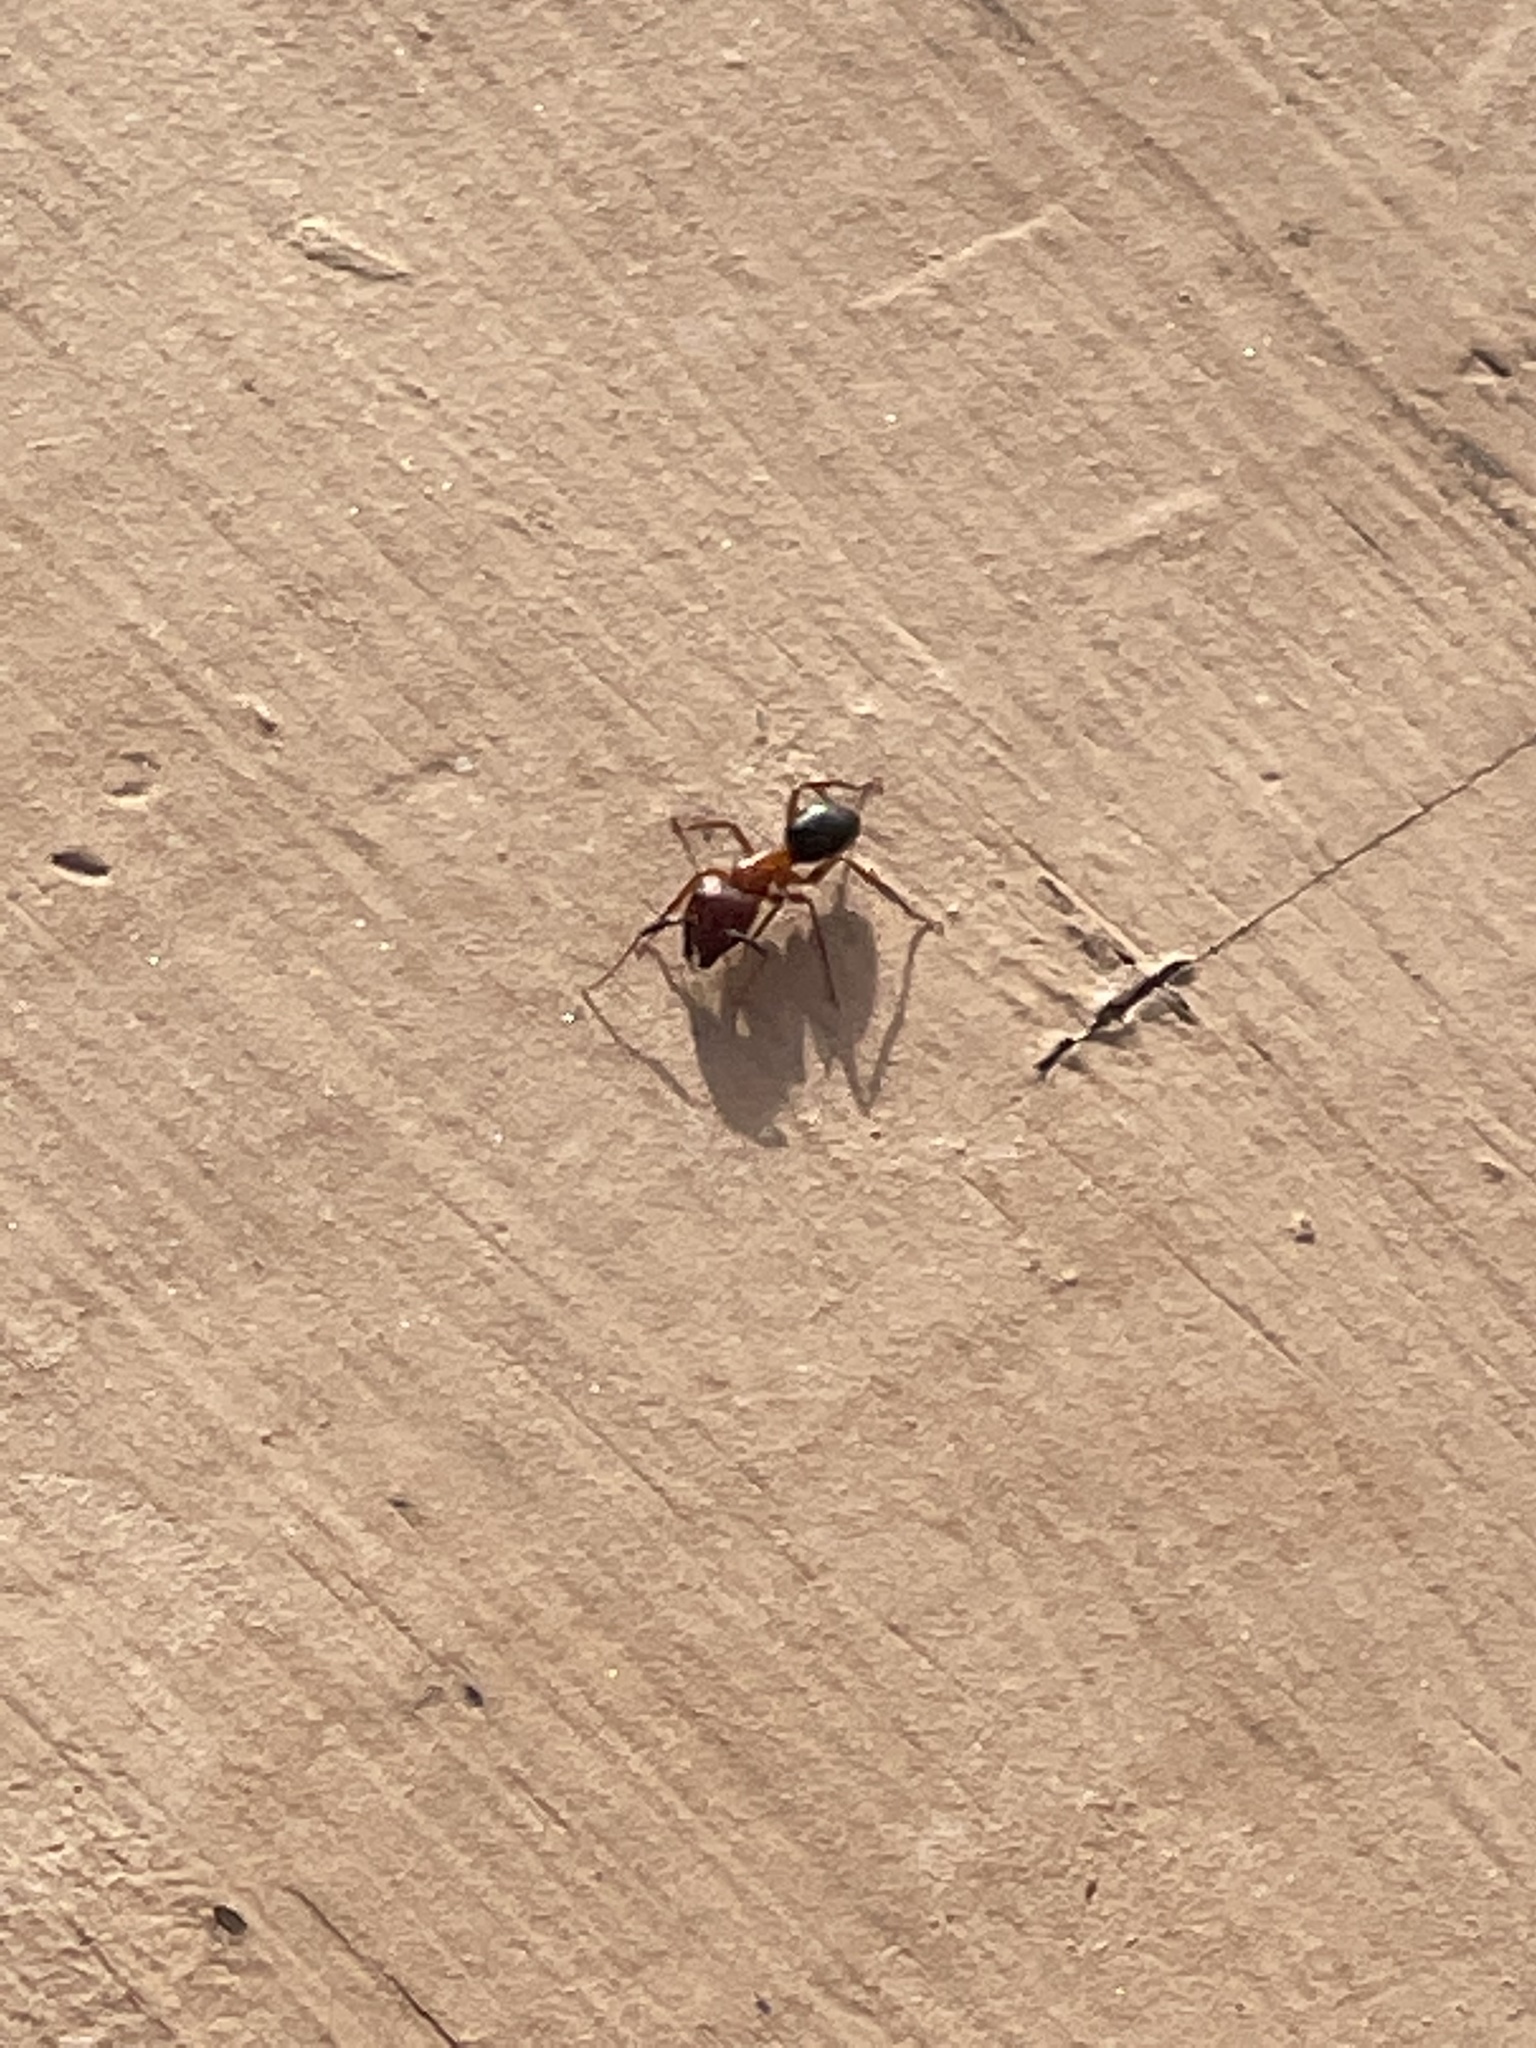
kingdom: Animalia
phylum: Arthropoda
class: Insecta
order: Hymenoptera
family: Formicidae
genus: Camponotus
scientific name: Camponotus floridanus
